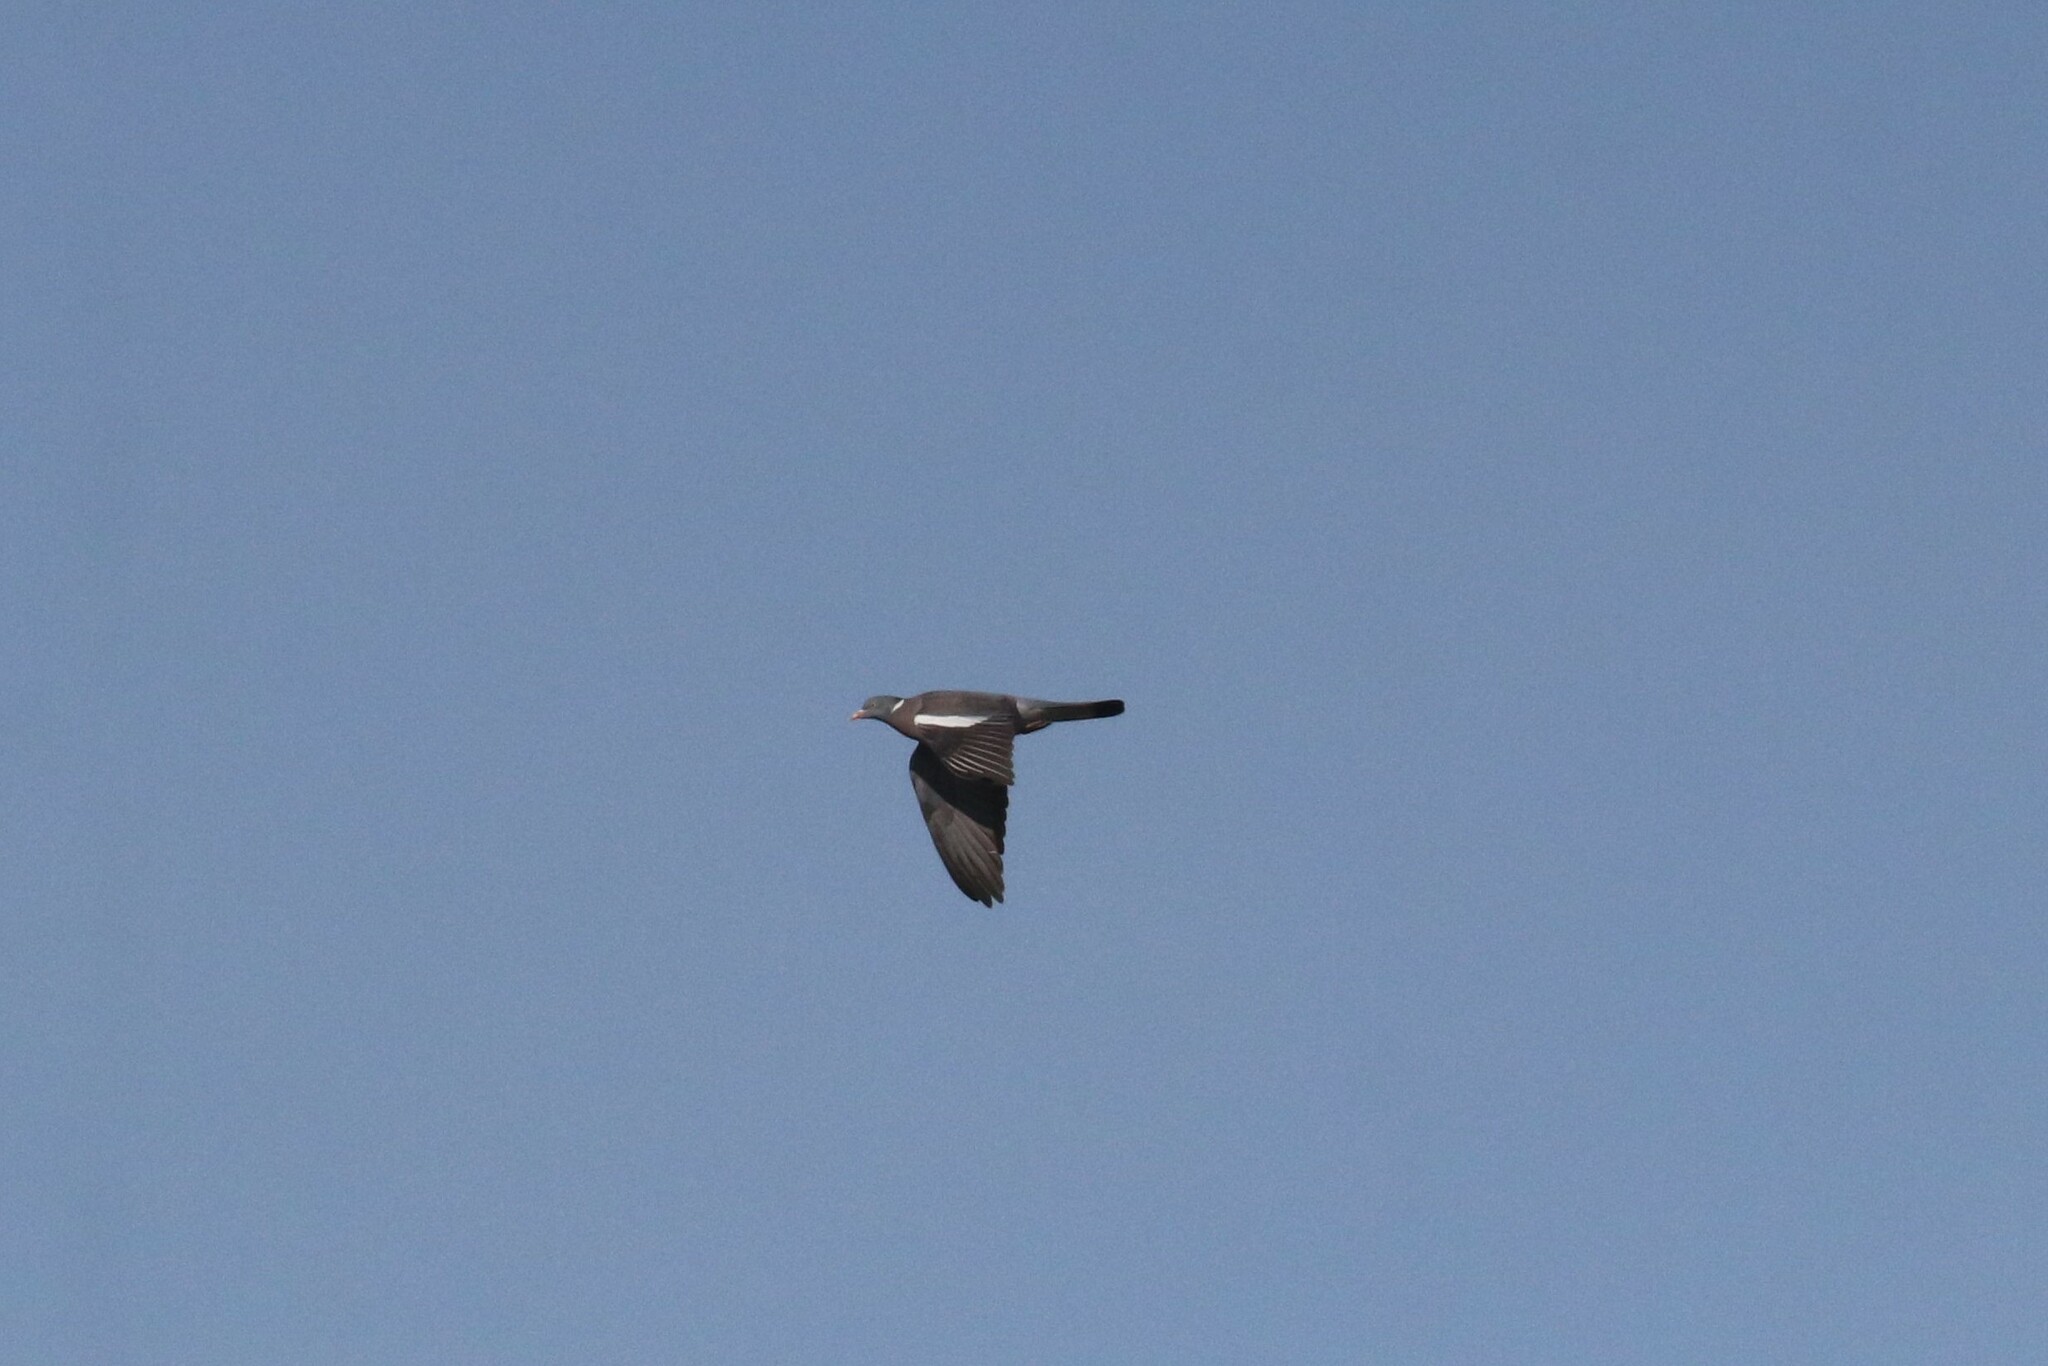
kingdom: Animalia
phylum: Chordata
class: Aves
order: Columbiformes
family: Columbidae
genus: Columba
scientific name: Columba palumbus
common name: Common wood pigeon
